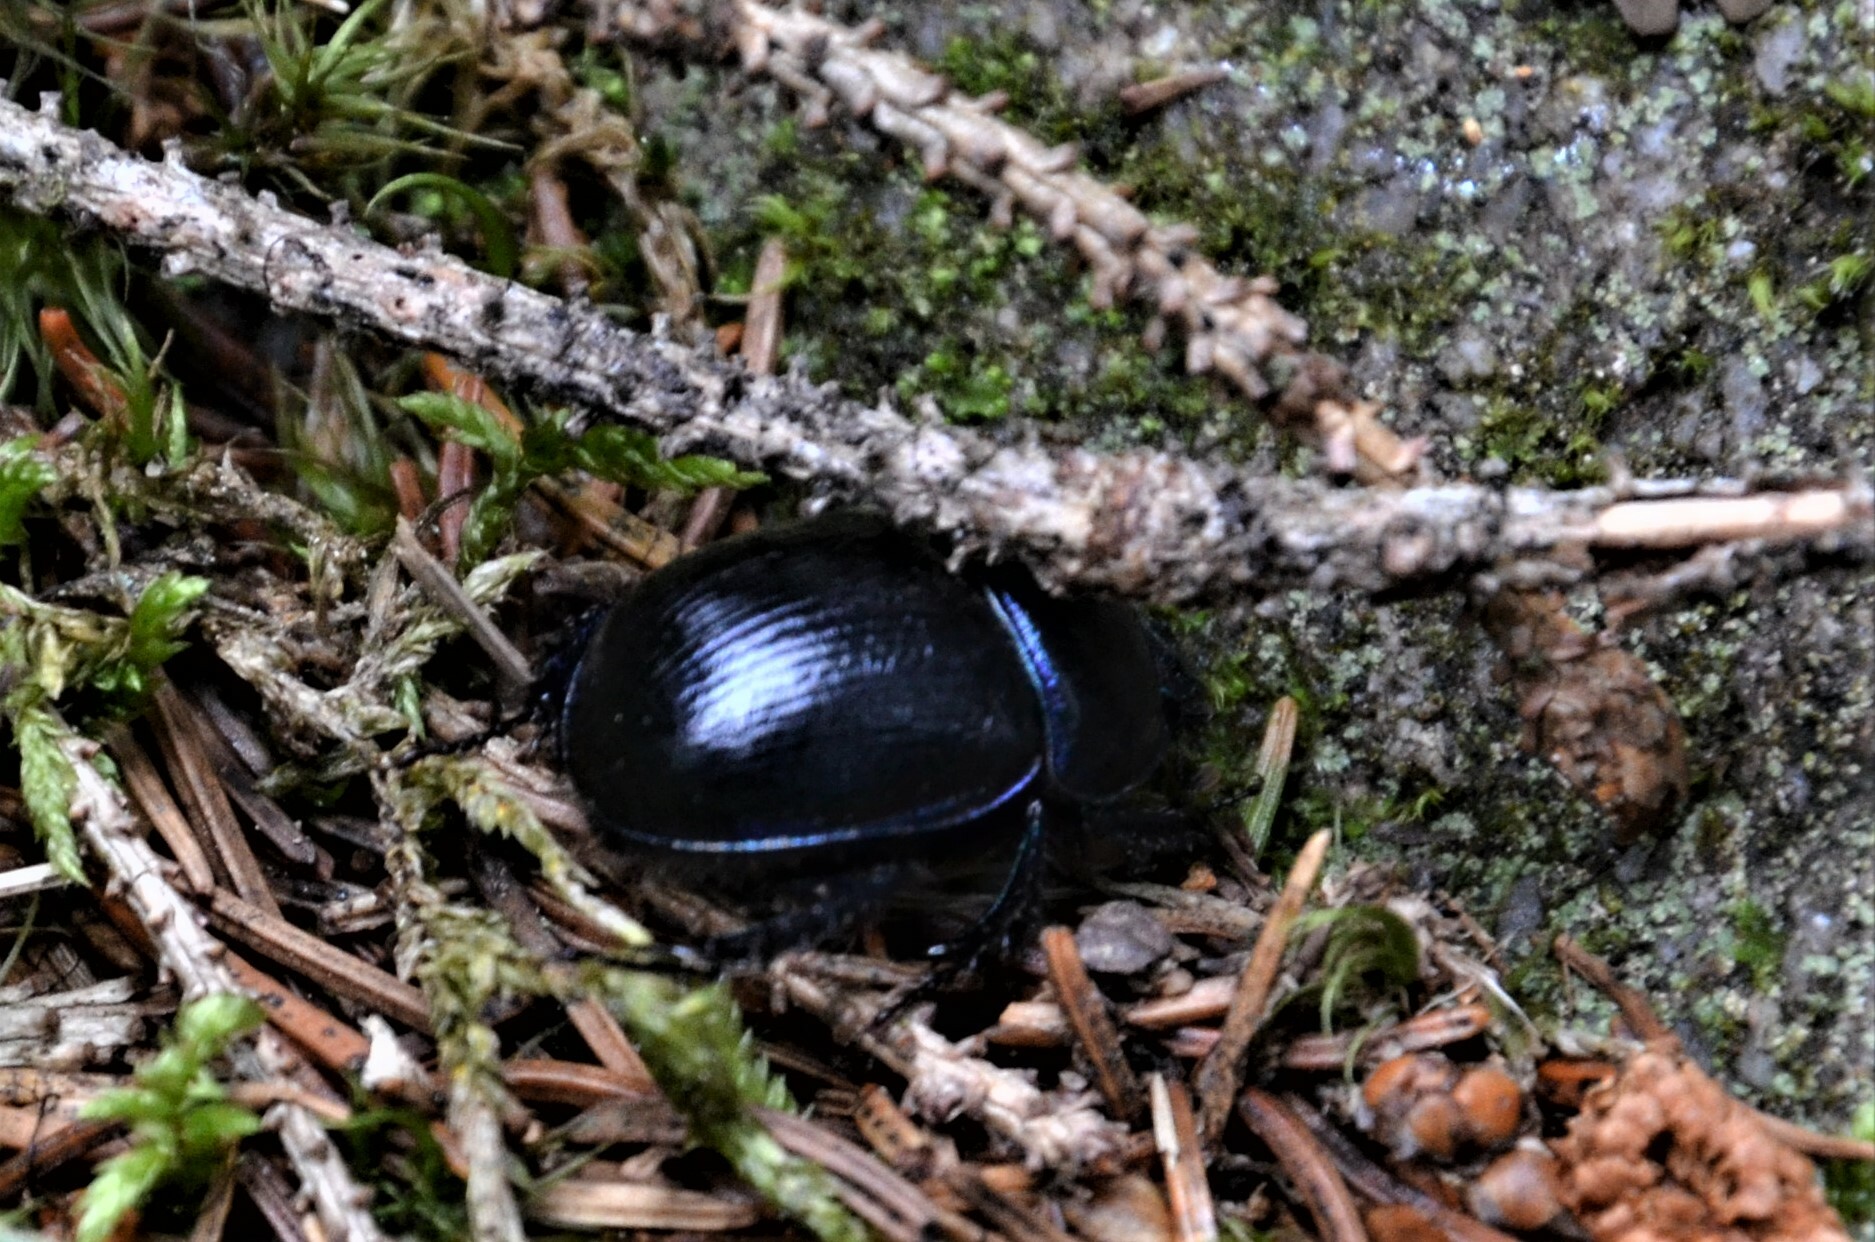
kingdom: Animalia
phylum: Arthropoda
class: Insecta
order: Coleoptera
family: Geotrupidae
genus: Anoplotrupes
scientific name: Anoplotrupes stercorosus
